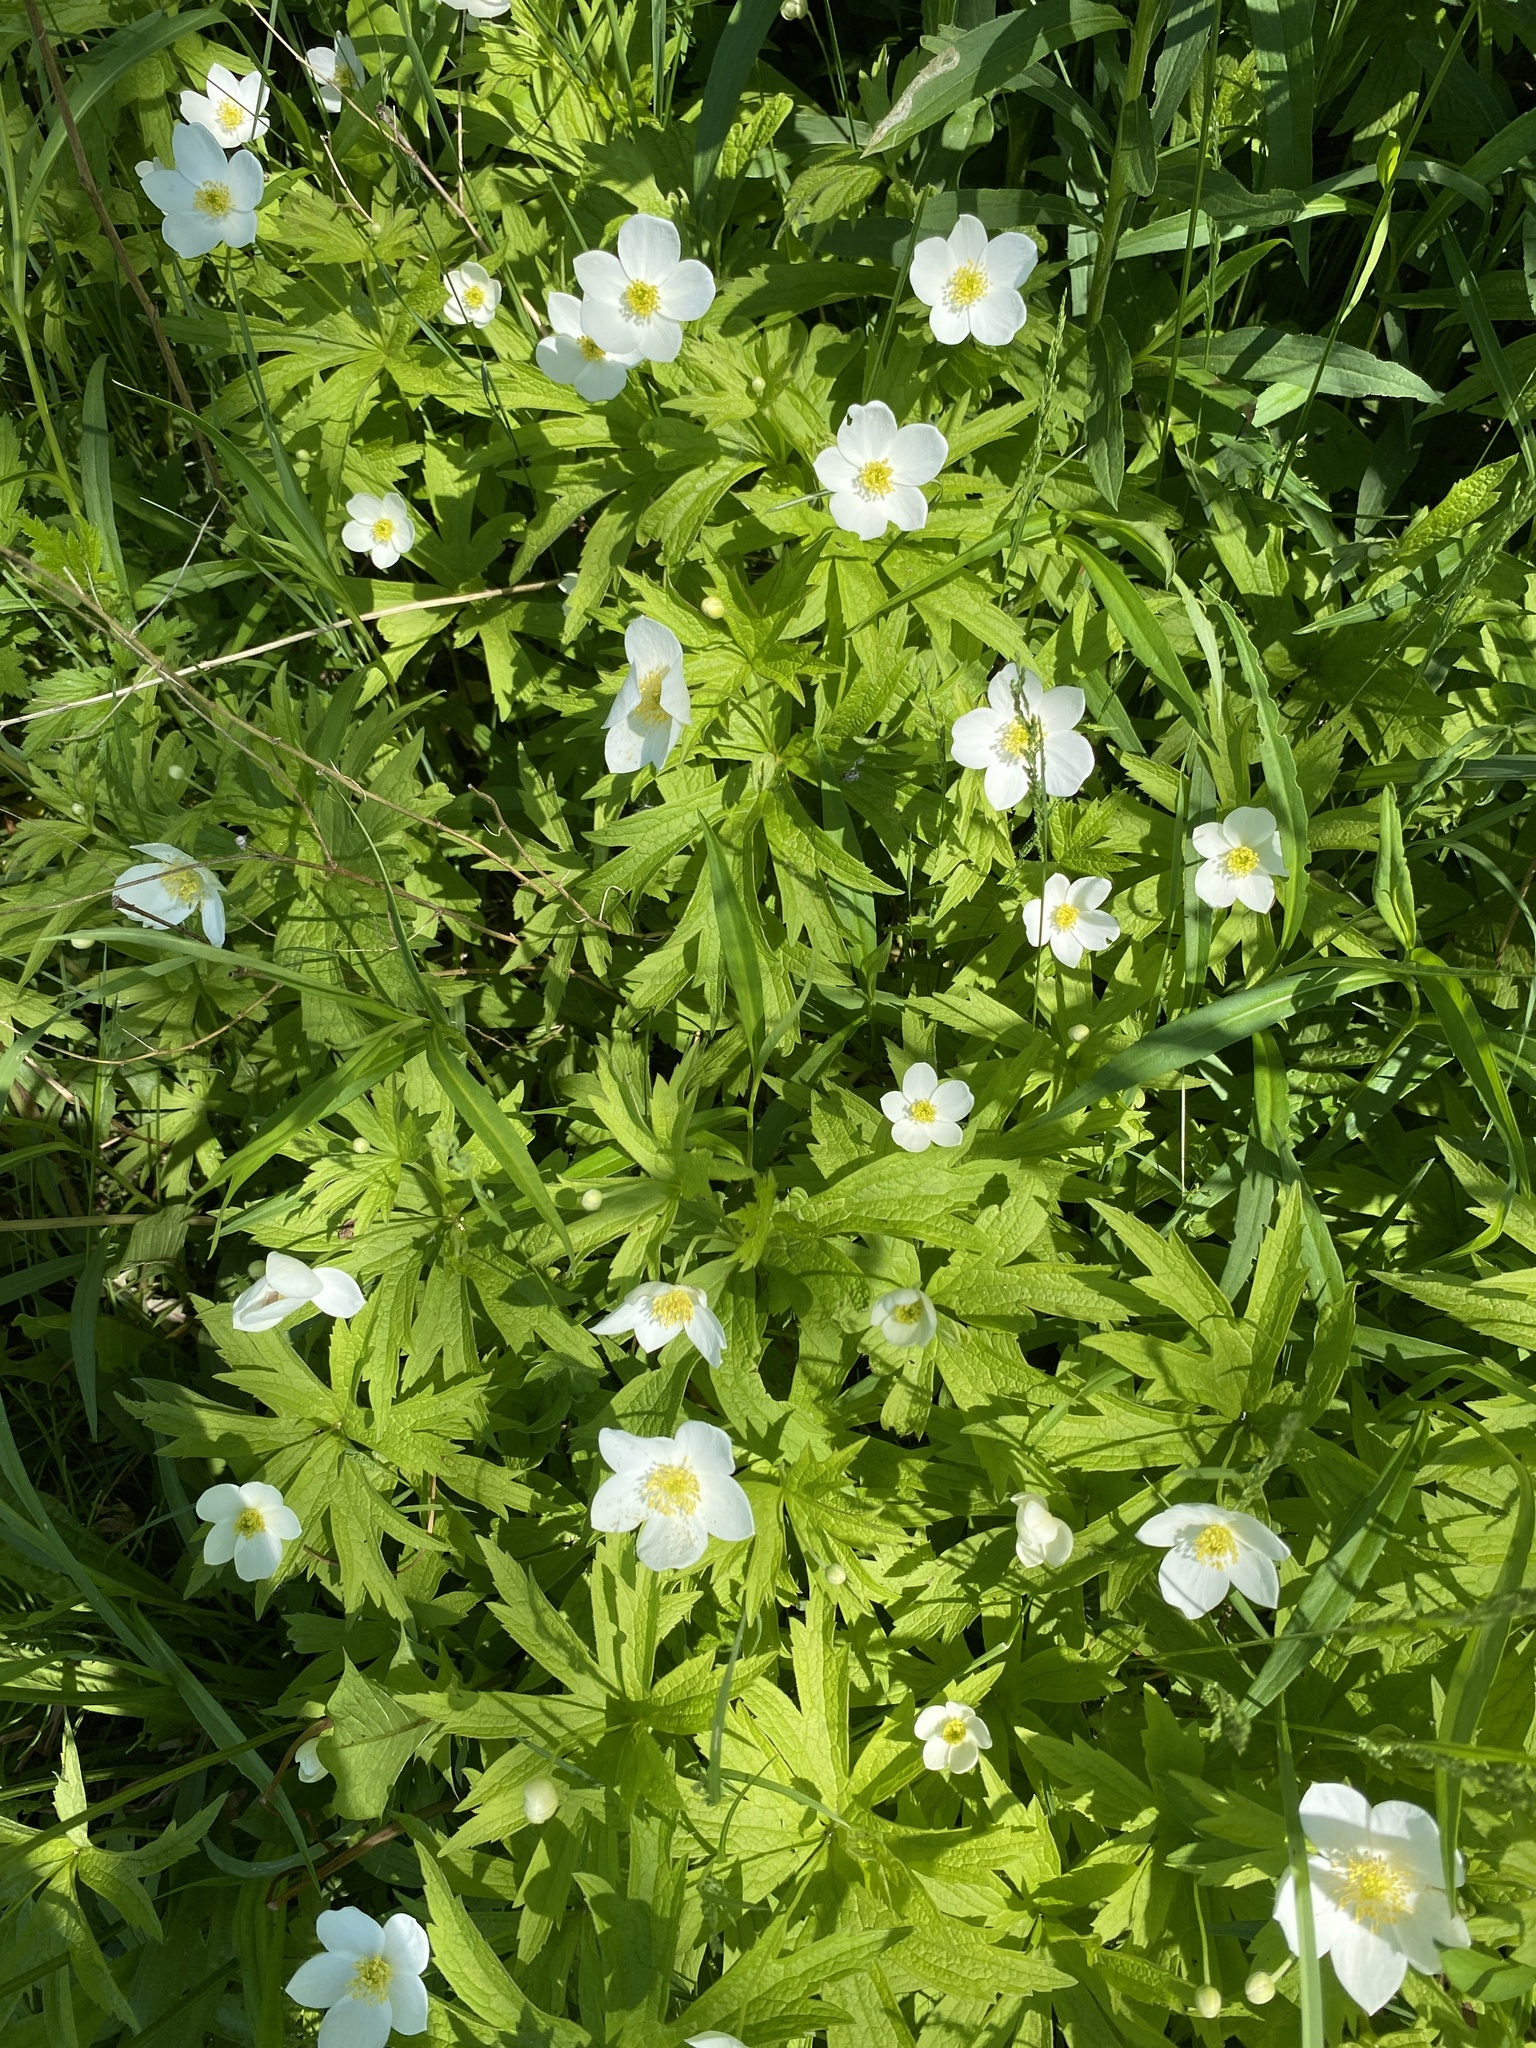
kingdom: Plantae
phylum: Tracheophyta
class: Magnoliopsida
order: Ranunculales
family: Ranunculaceae
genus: Anemonastrum
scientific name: Anemonastrum canadense
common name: Canada anemone
